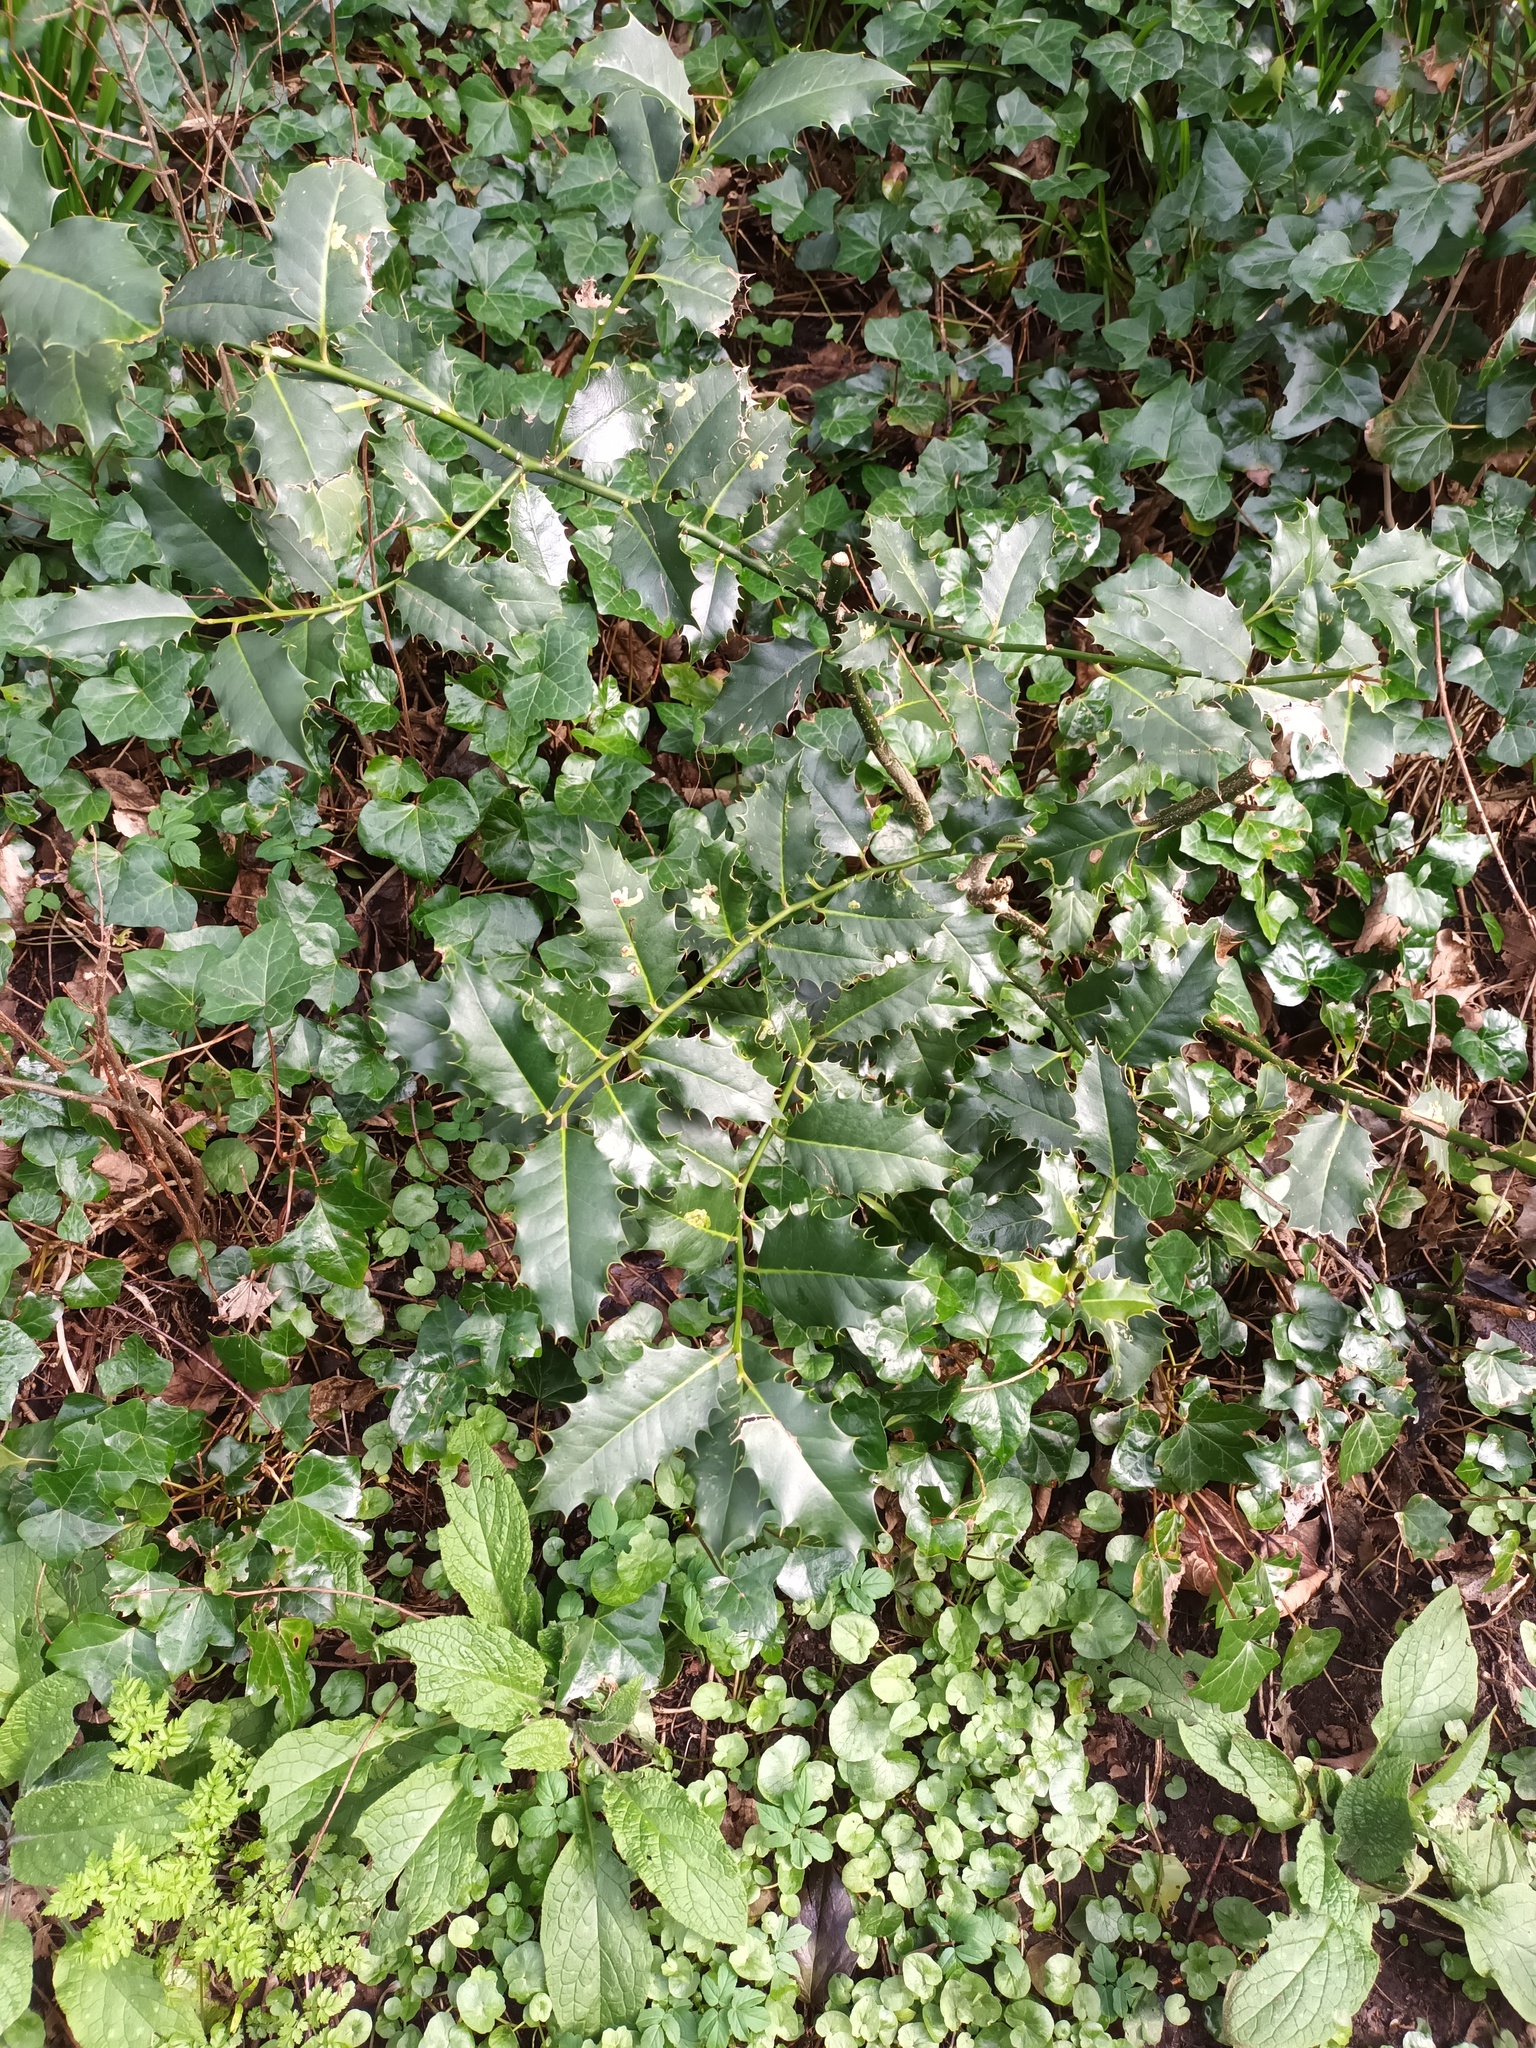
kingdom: Plantae
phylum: Tracheophyta
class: Magnoliopsida
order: Aquifoliales
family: Aquifoliaceae
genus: Ilex
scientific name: Ilex aquifolium
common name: English holly
